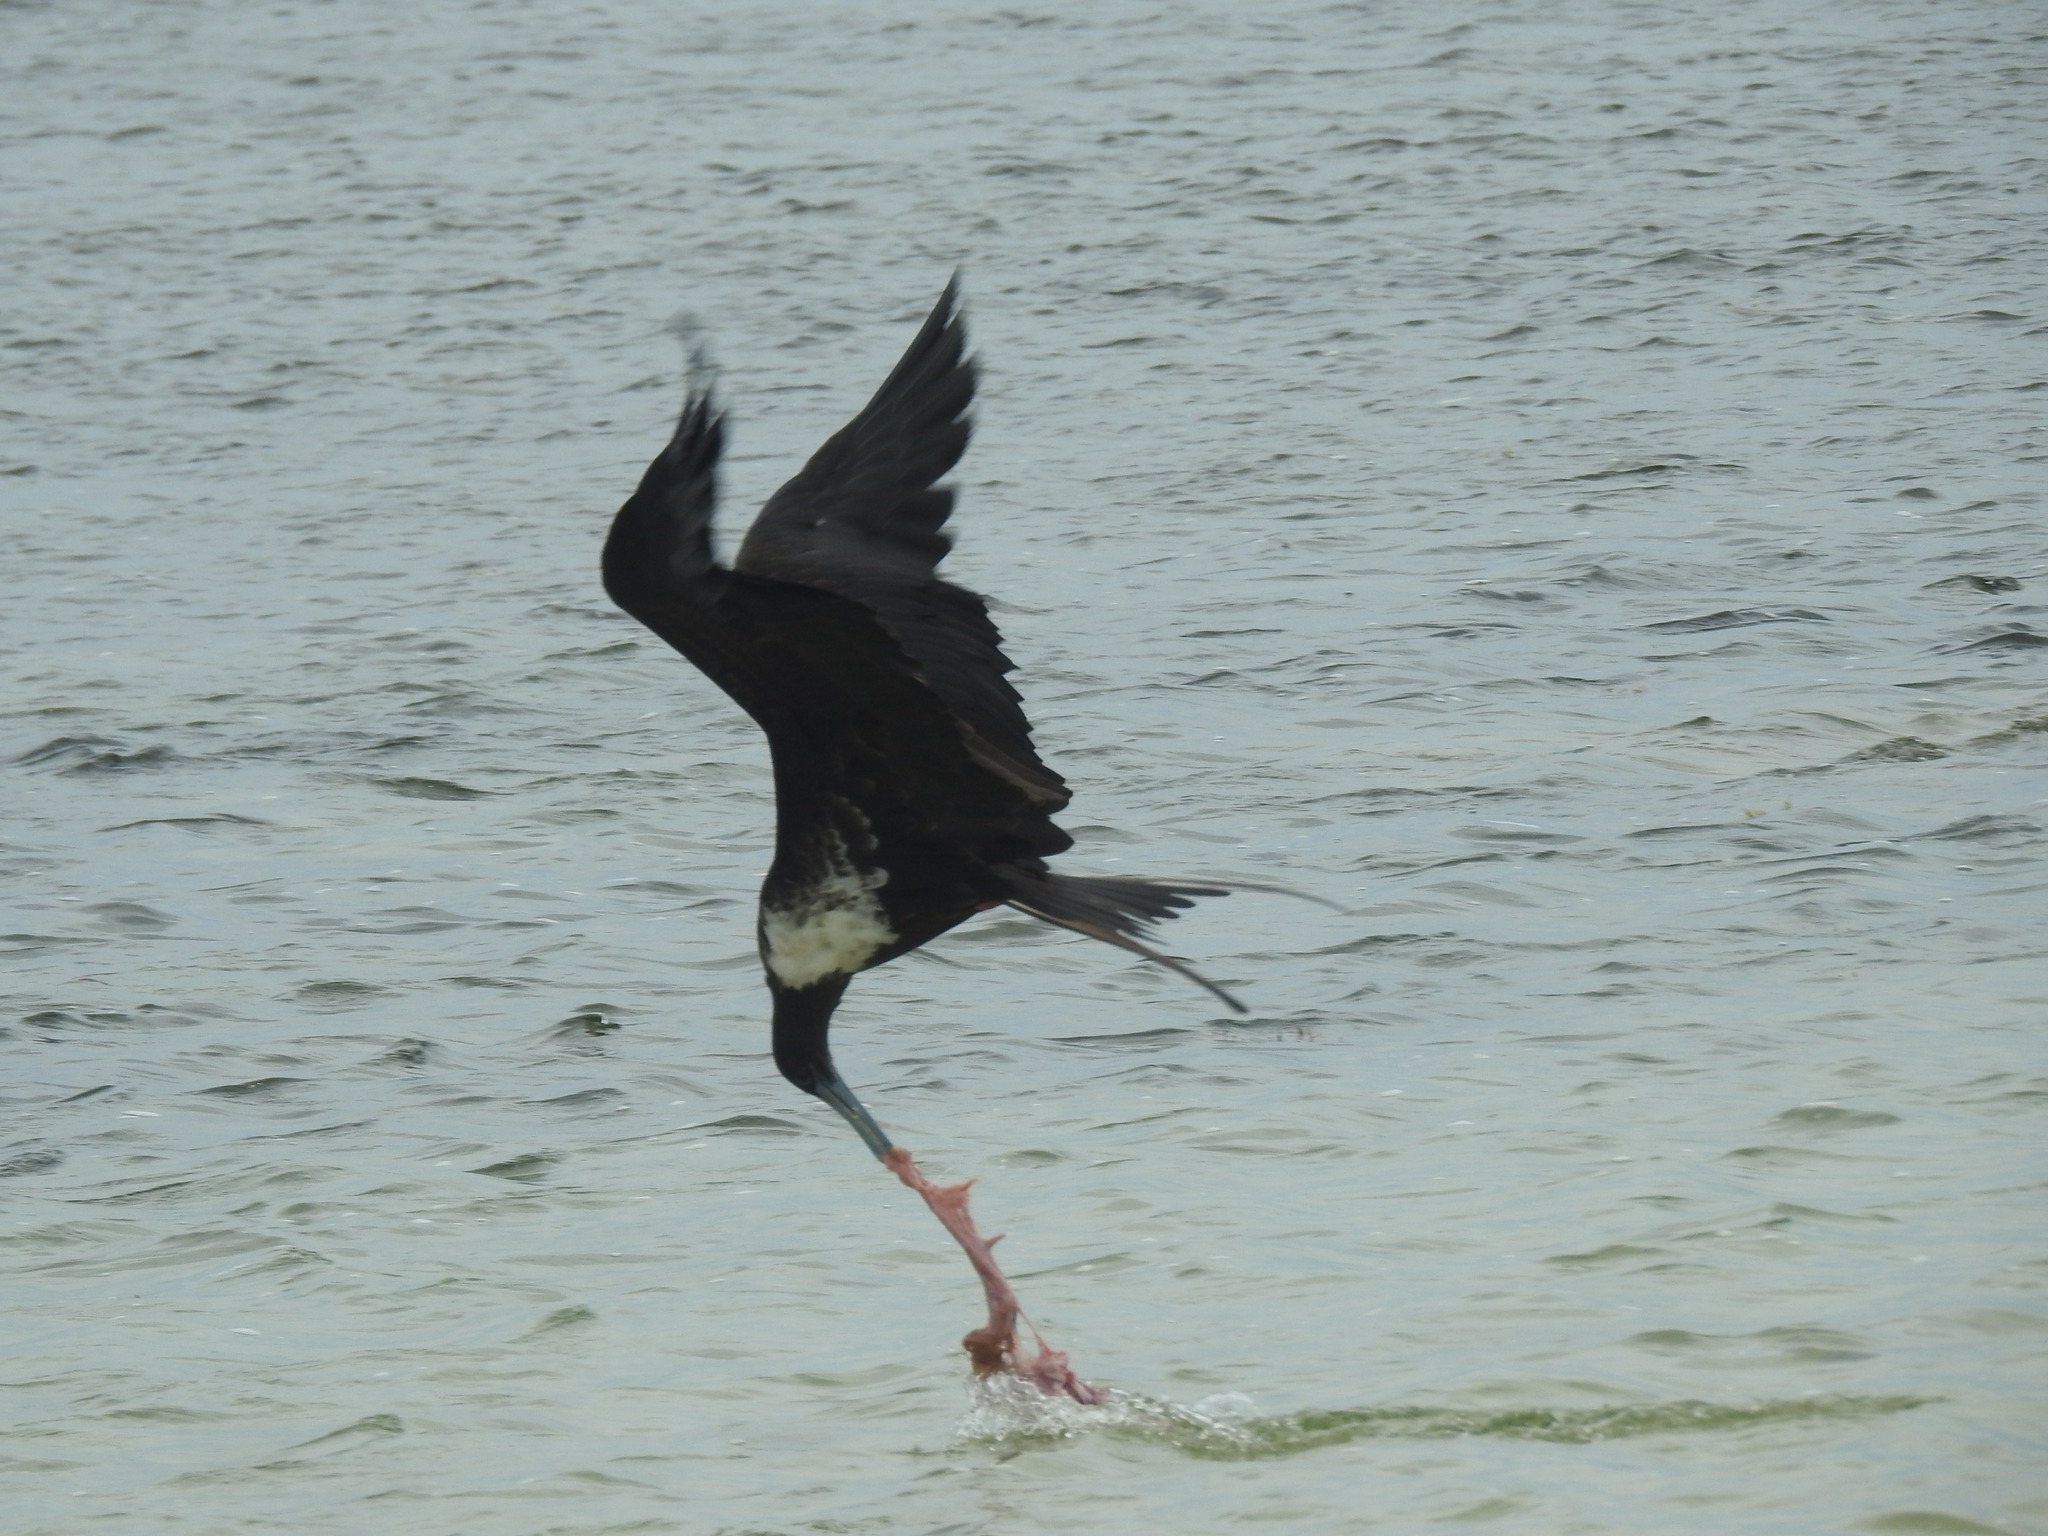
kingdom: Animalia
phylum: Chordata
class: Aves
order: Suliformes
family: Fregatidae
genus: Fregata
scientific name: Fregata magnificens
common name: Magnificent frigatebird
